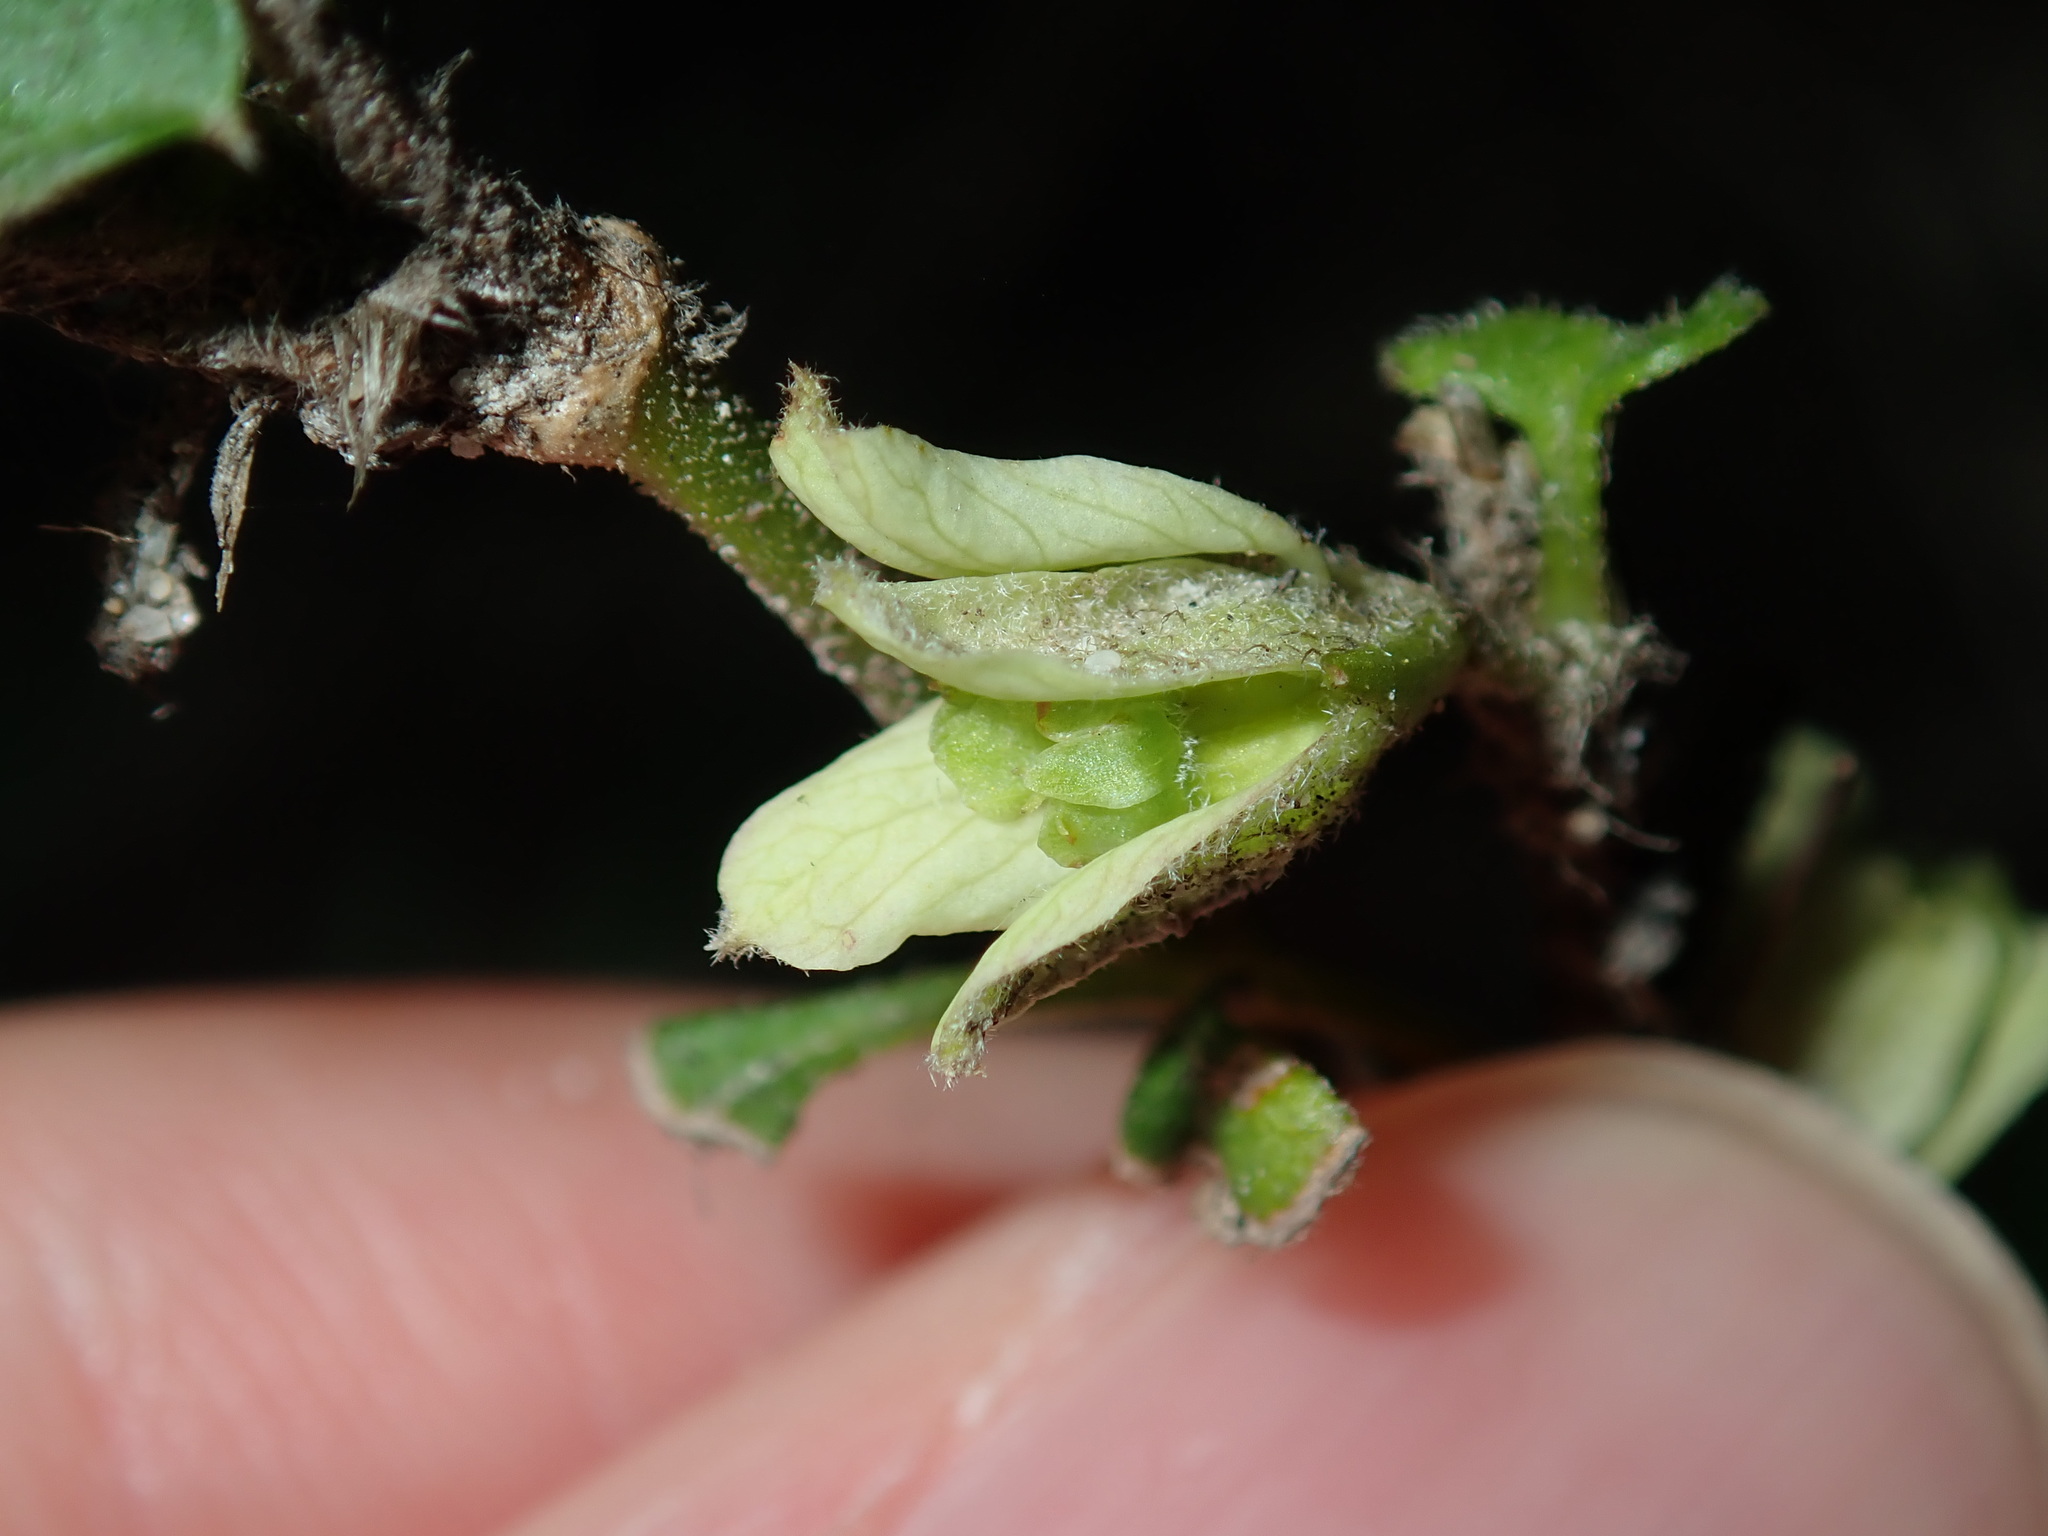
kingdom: Plantae
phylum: Tracheophyta
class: Magnoliopsida
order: Apiales
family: Apiaceae
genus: Xanthosia
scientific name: Xanthosia pilosa
